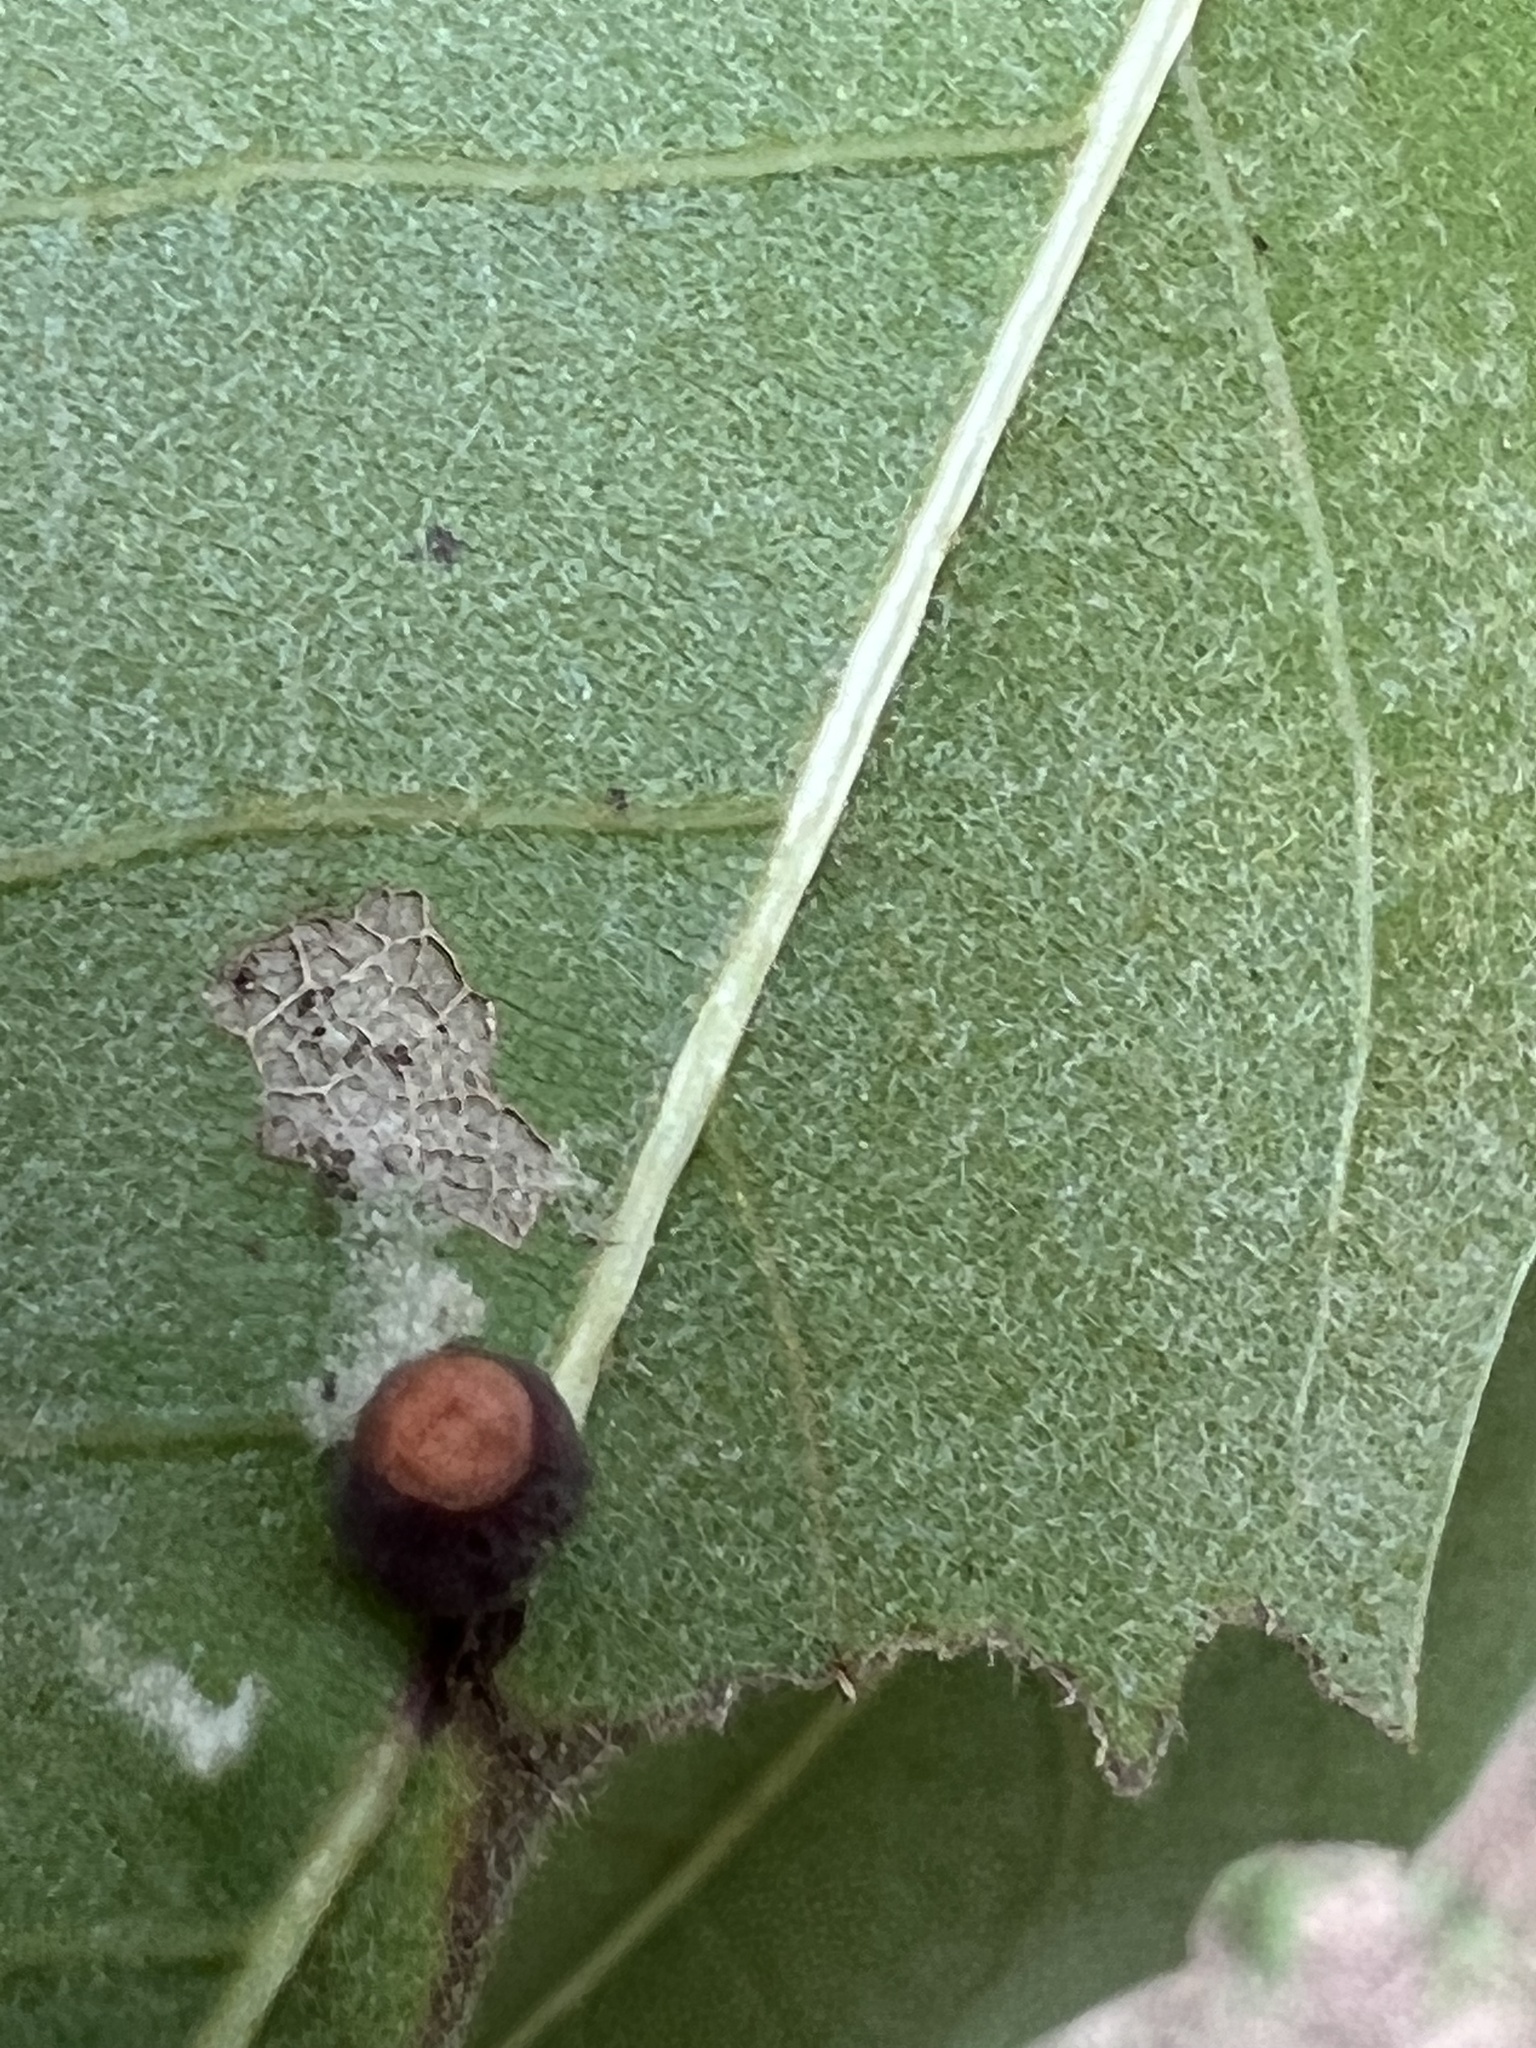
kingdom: Animalia
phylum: Arthropoda
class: Insecta
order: Hymenoptera
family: Cynipidae
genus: Kokkocynips
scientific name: Kokkocynips rileyi
